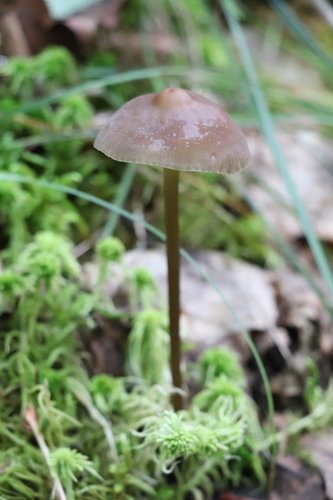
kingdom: Fungi
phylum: Basidiomycota
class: Agaricomycetes
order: Agaricales
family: Mycenaceae
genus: Mycena
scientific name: Mycena megaspora
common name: Rooting bonnet
